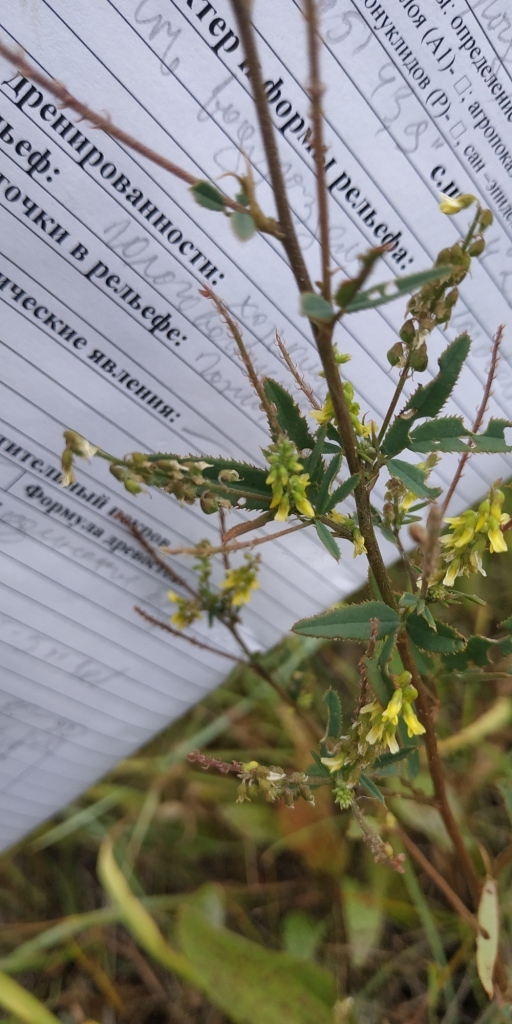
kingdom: Plantae
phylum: Tracheophyta
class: Magnoliopsida
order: Fabales
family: Fabaceae
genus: Melilotus
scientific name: Melilotus dentatus
